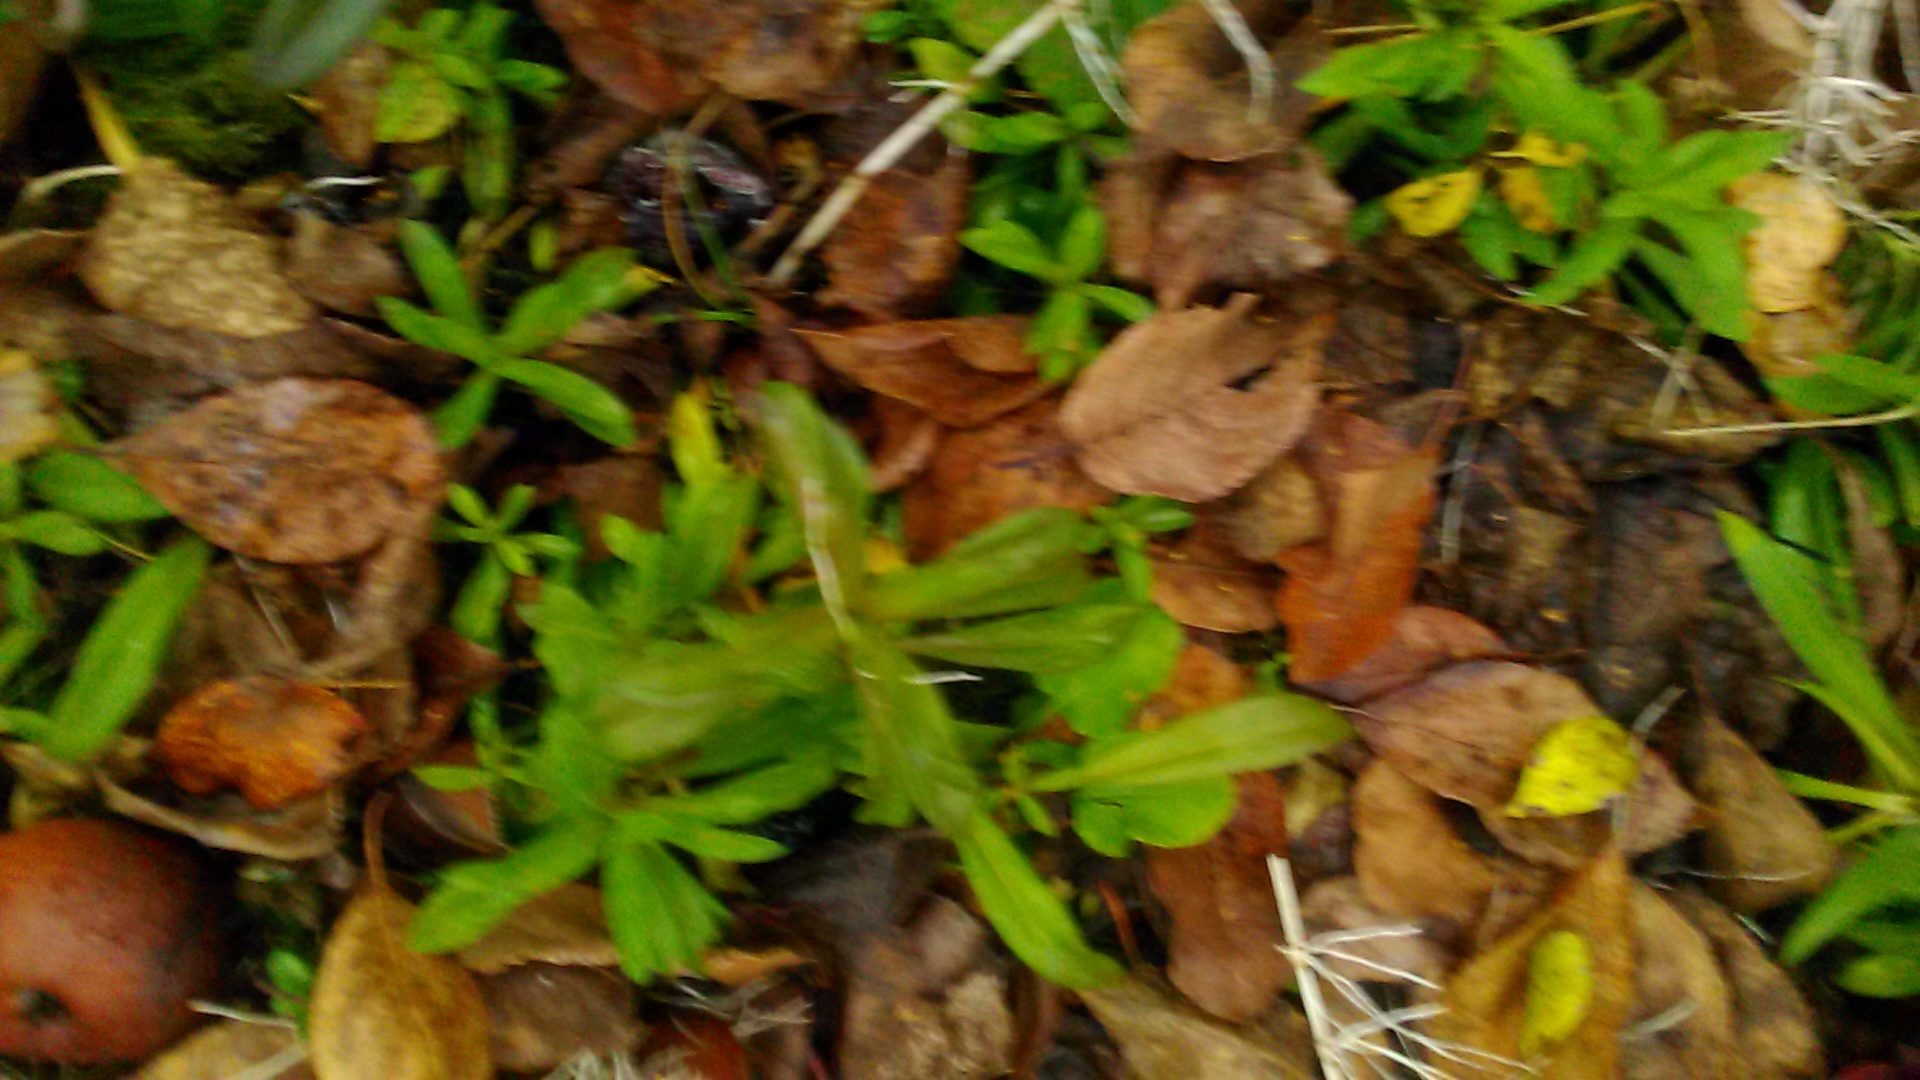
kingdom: Plantae
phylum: Tracheophyta
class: Magnoliopsida
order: Caryophyllales
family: Caryophyllaceae
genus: Dianthus
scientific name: Dianthus barbatus
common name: Sweet-william
